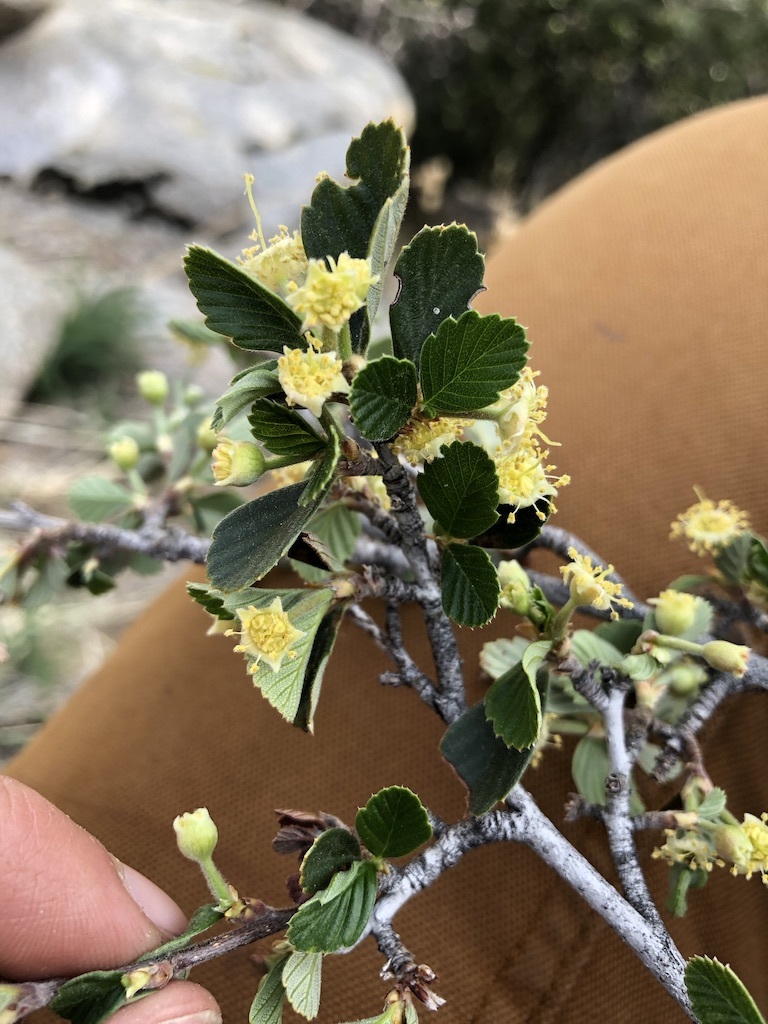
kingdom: Plantae
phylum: Tracheophyta
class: Magnoliopsida
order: Rosales
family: Rosaceae
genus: Cercocarpus
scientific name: Cercocarpus betuloides
